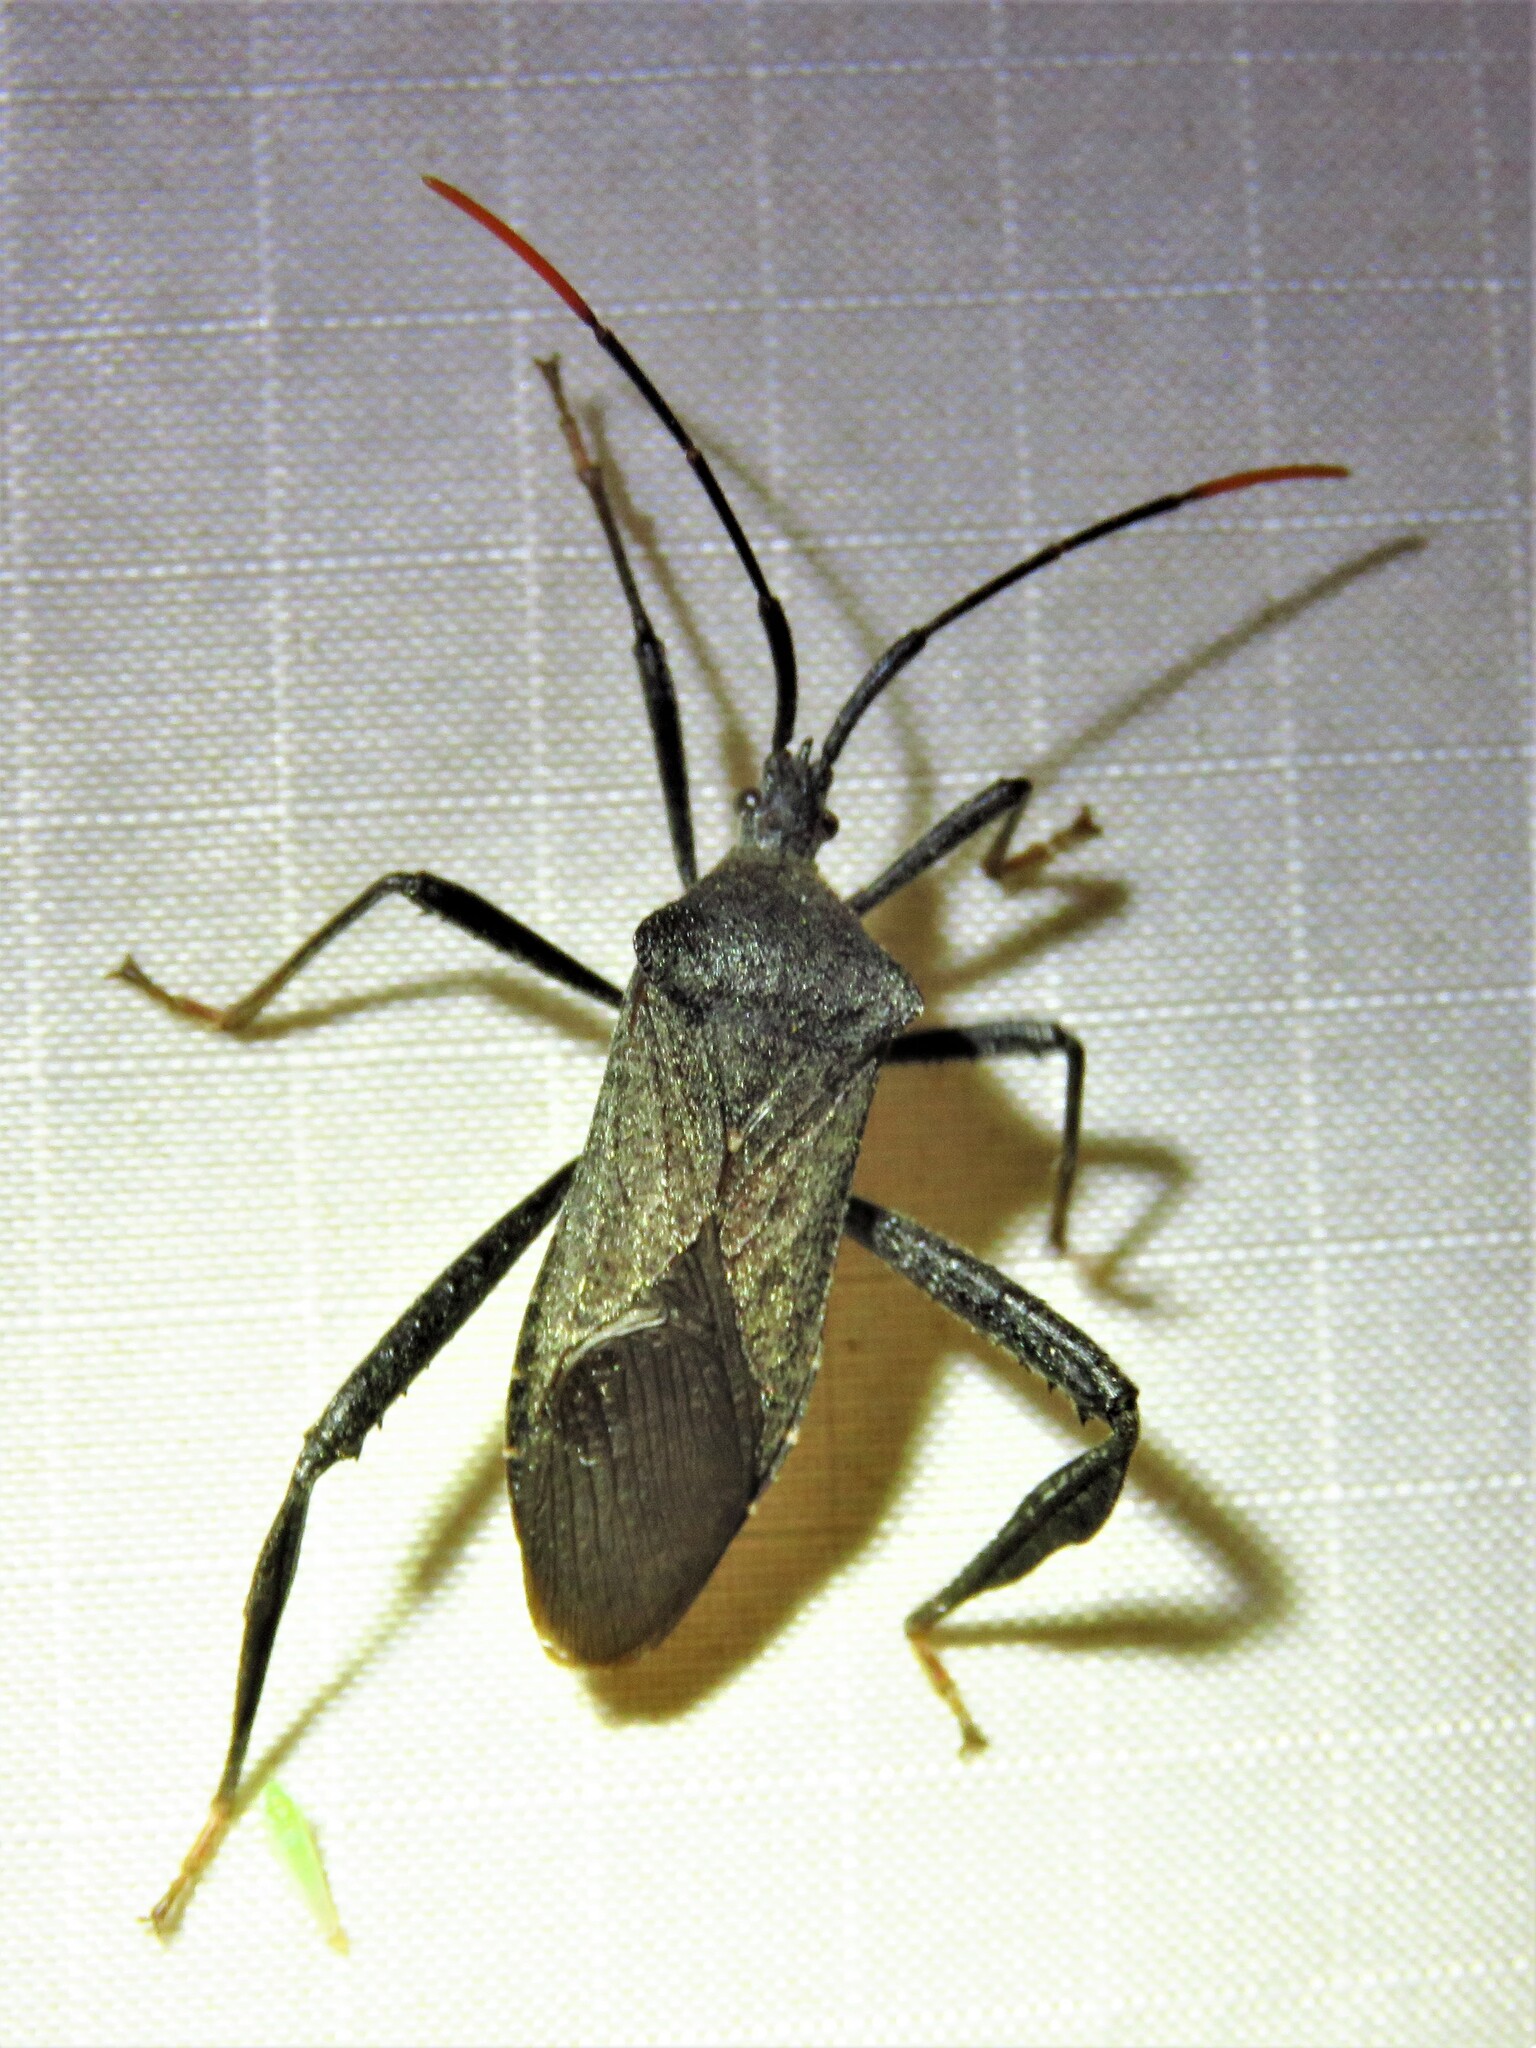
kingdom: Animalia
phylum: Arthropoda
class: Insecta
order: Hemiptera
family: Coreidae
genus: Acanthocephala
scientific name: Acanthocephala terminalis
